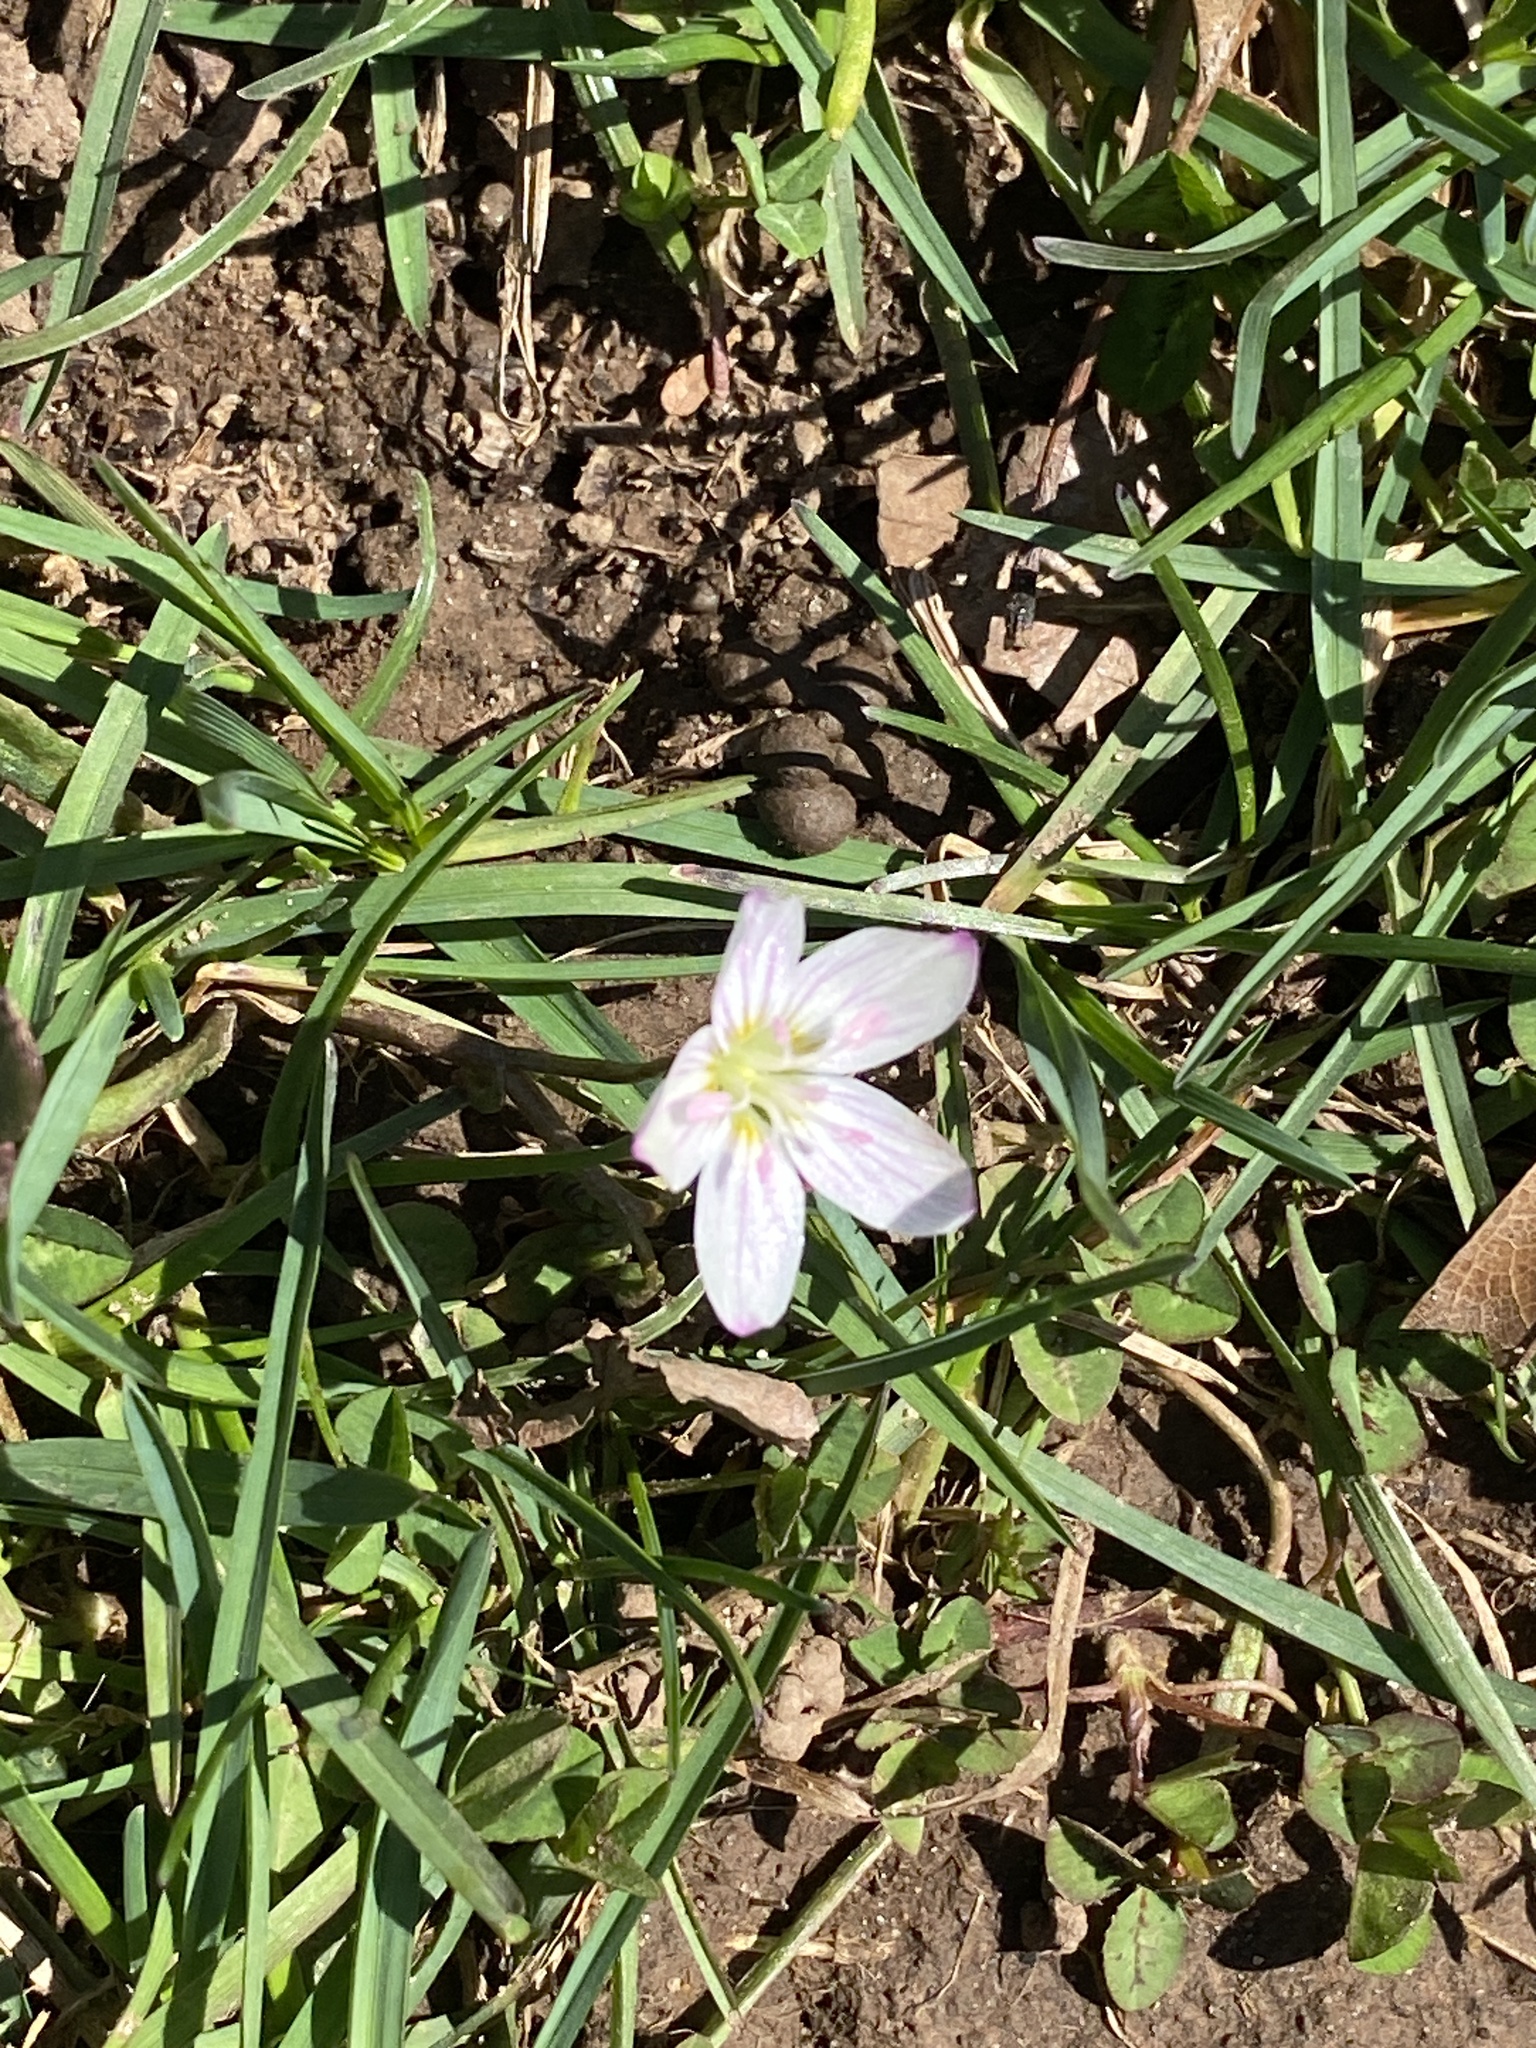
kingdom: Plantae
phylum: Tracheophyta
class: Magnoliopsida
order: Caryophyllales
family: Montiaceae
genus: Claytonia
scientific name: Claytonia virginica
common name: Virginia springbeauty
